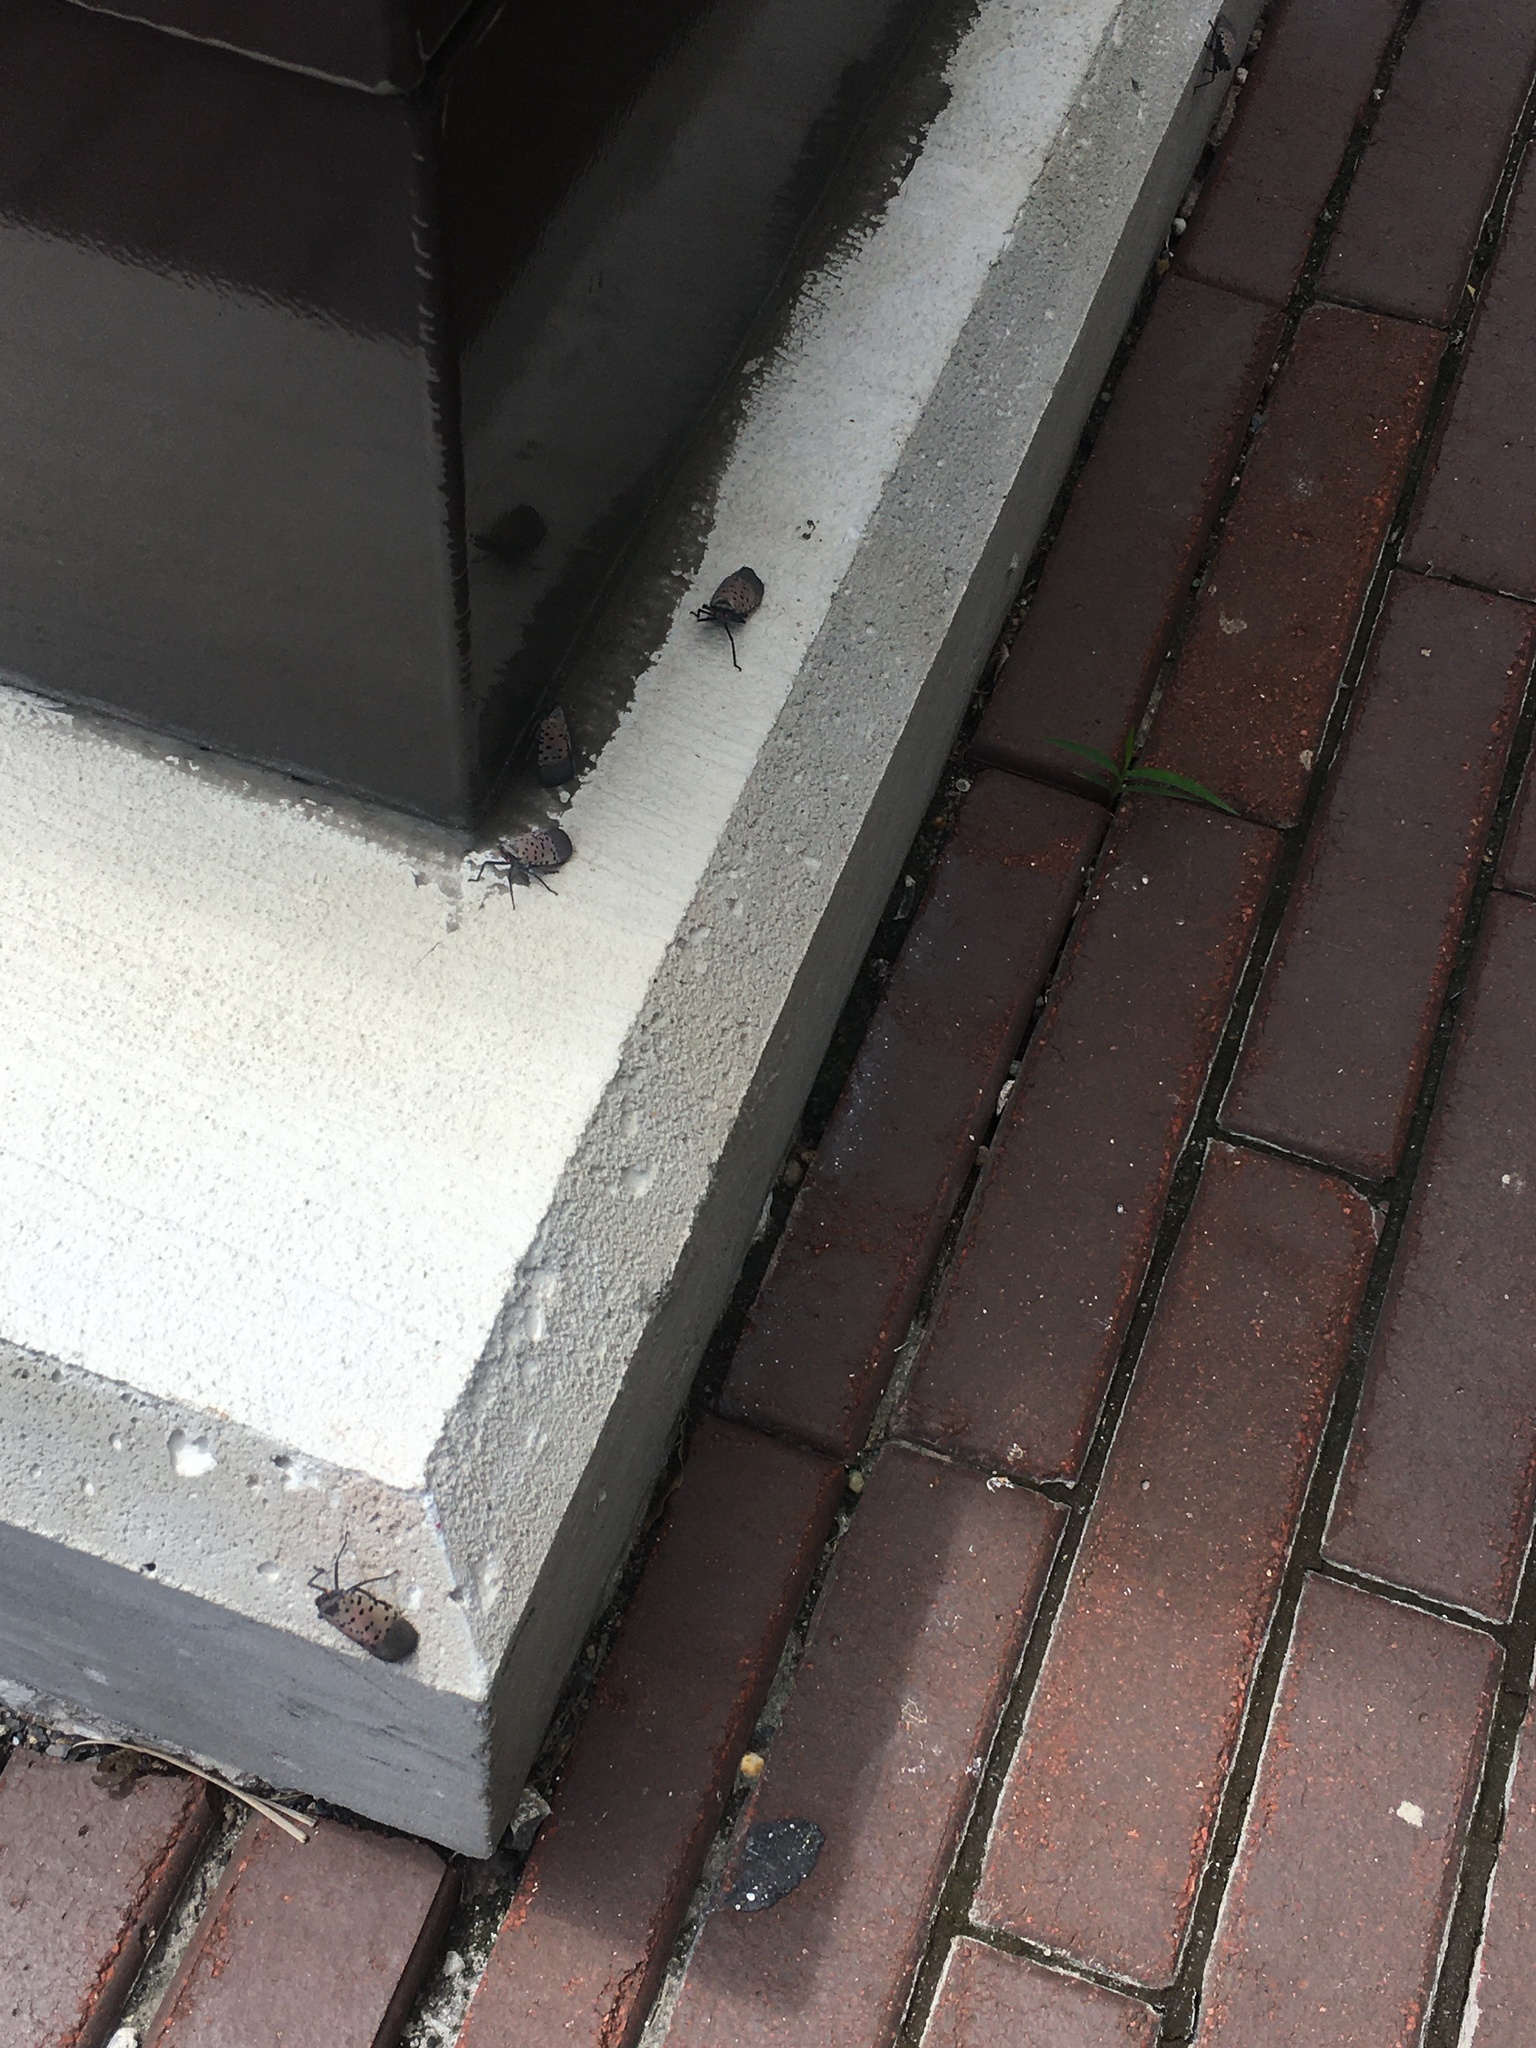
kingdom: Animalia
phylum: Arthropoda
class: Insecta
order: Hemiptera
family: Fulgoridae
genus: Lycorma
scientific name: Lycorma delicatula
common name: Spotted lanternfly
